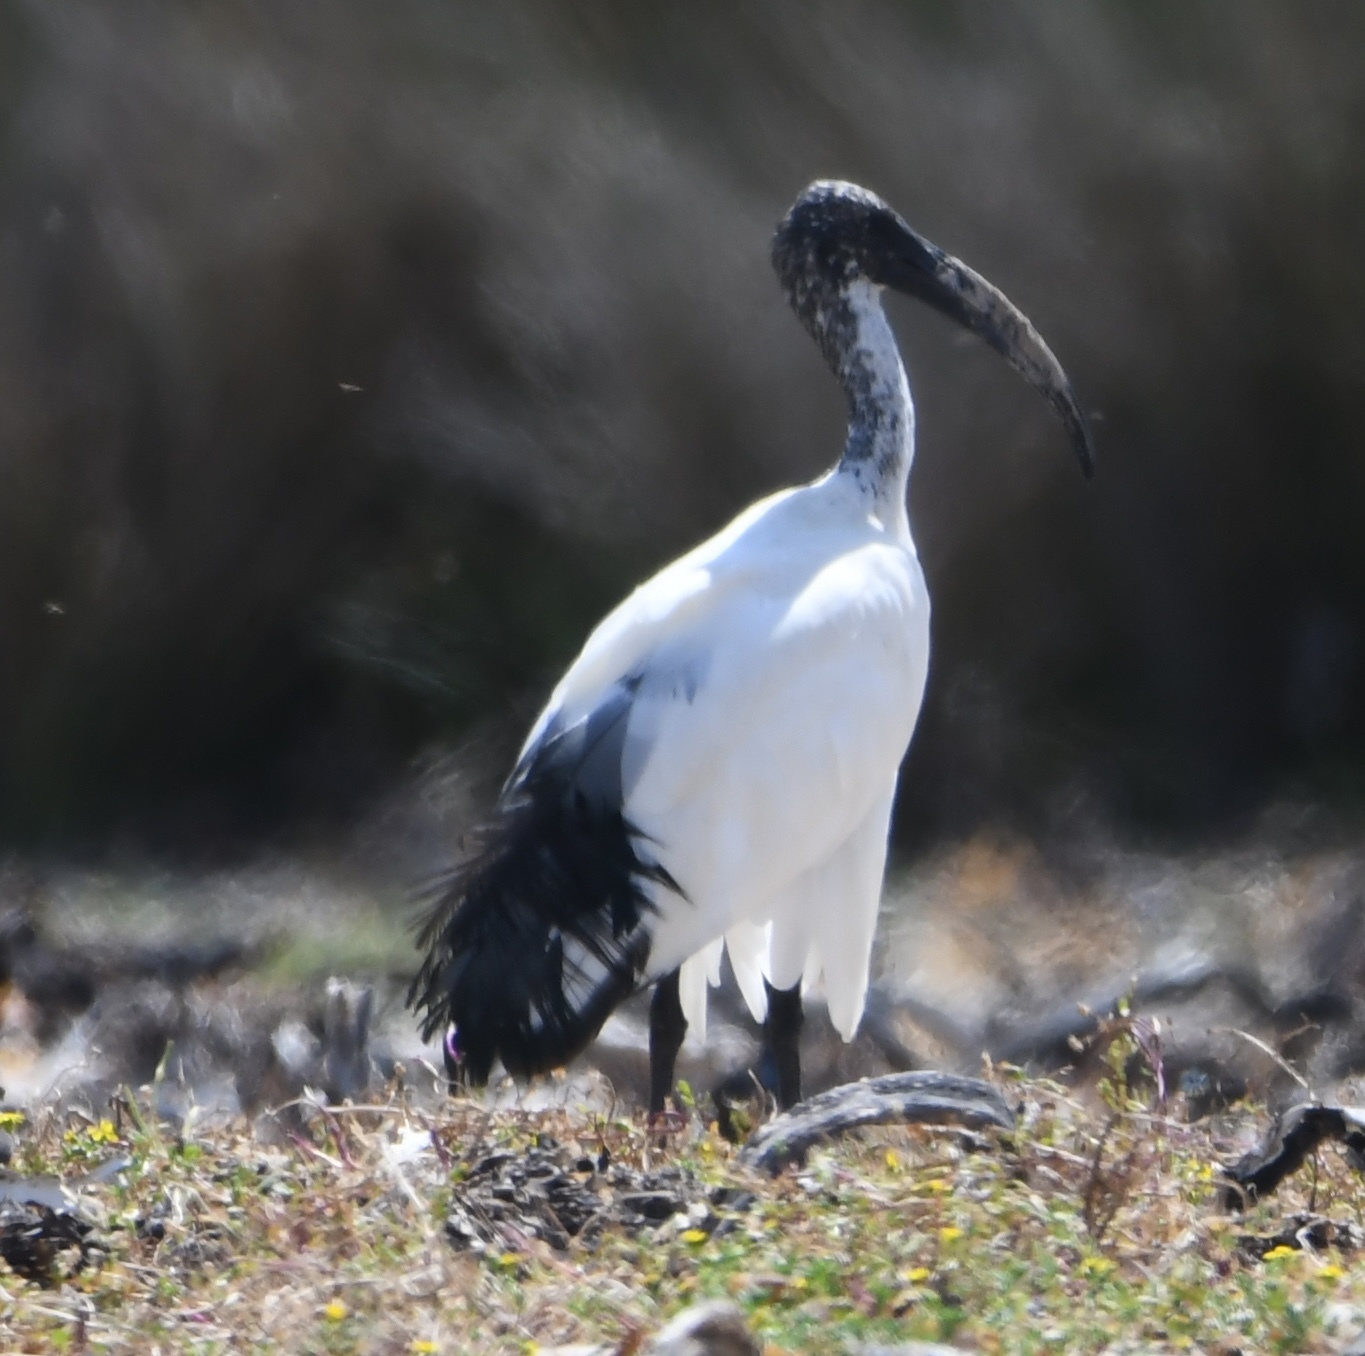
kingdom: Animalia
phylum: Chordata
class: Aves
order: Pelecaniformes
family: Threskiornithidae
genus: Threskiornis
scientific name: Threskiornis aethiopicus
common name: Sacred ibis
